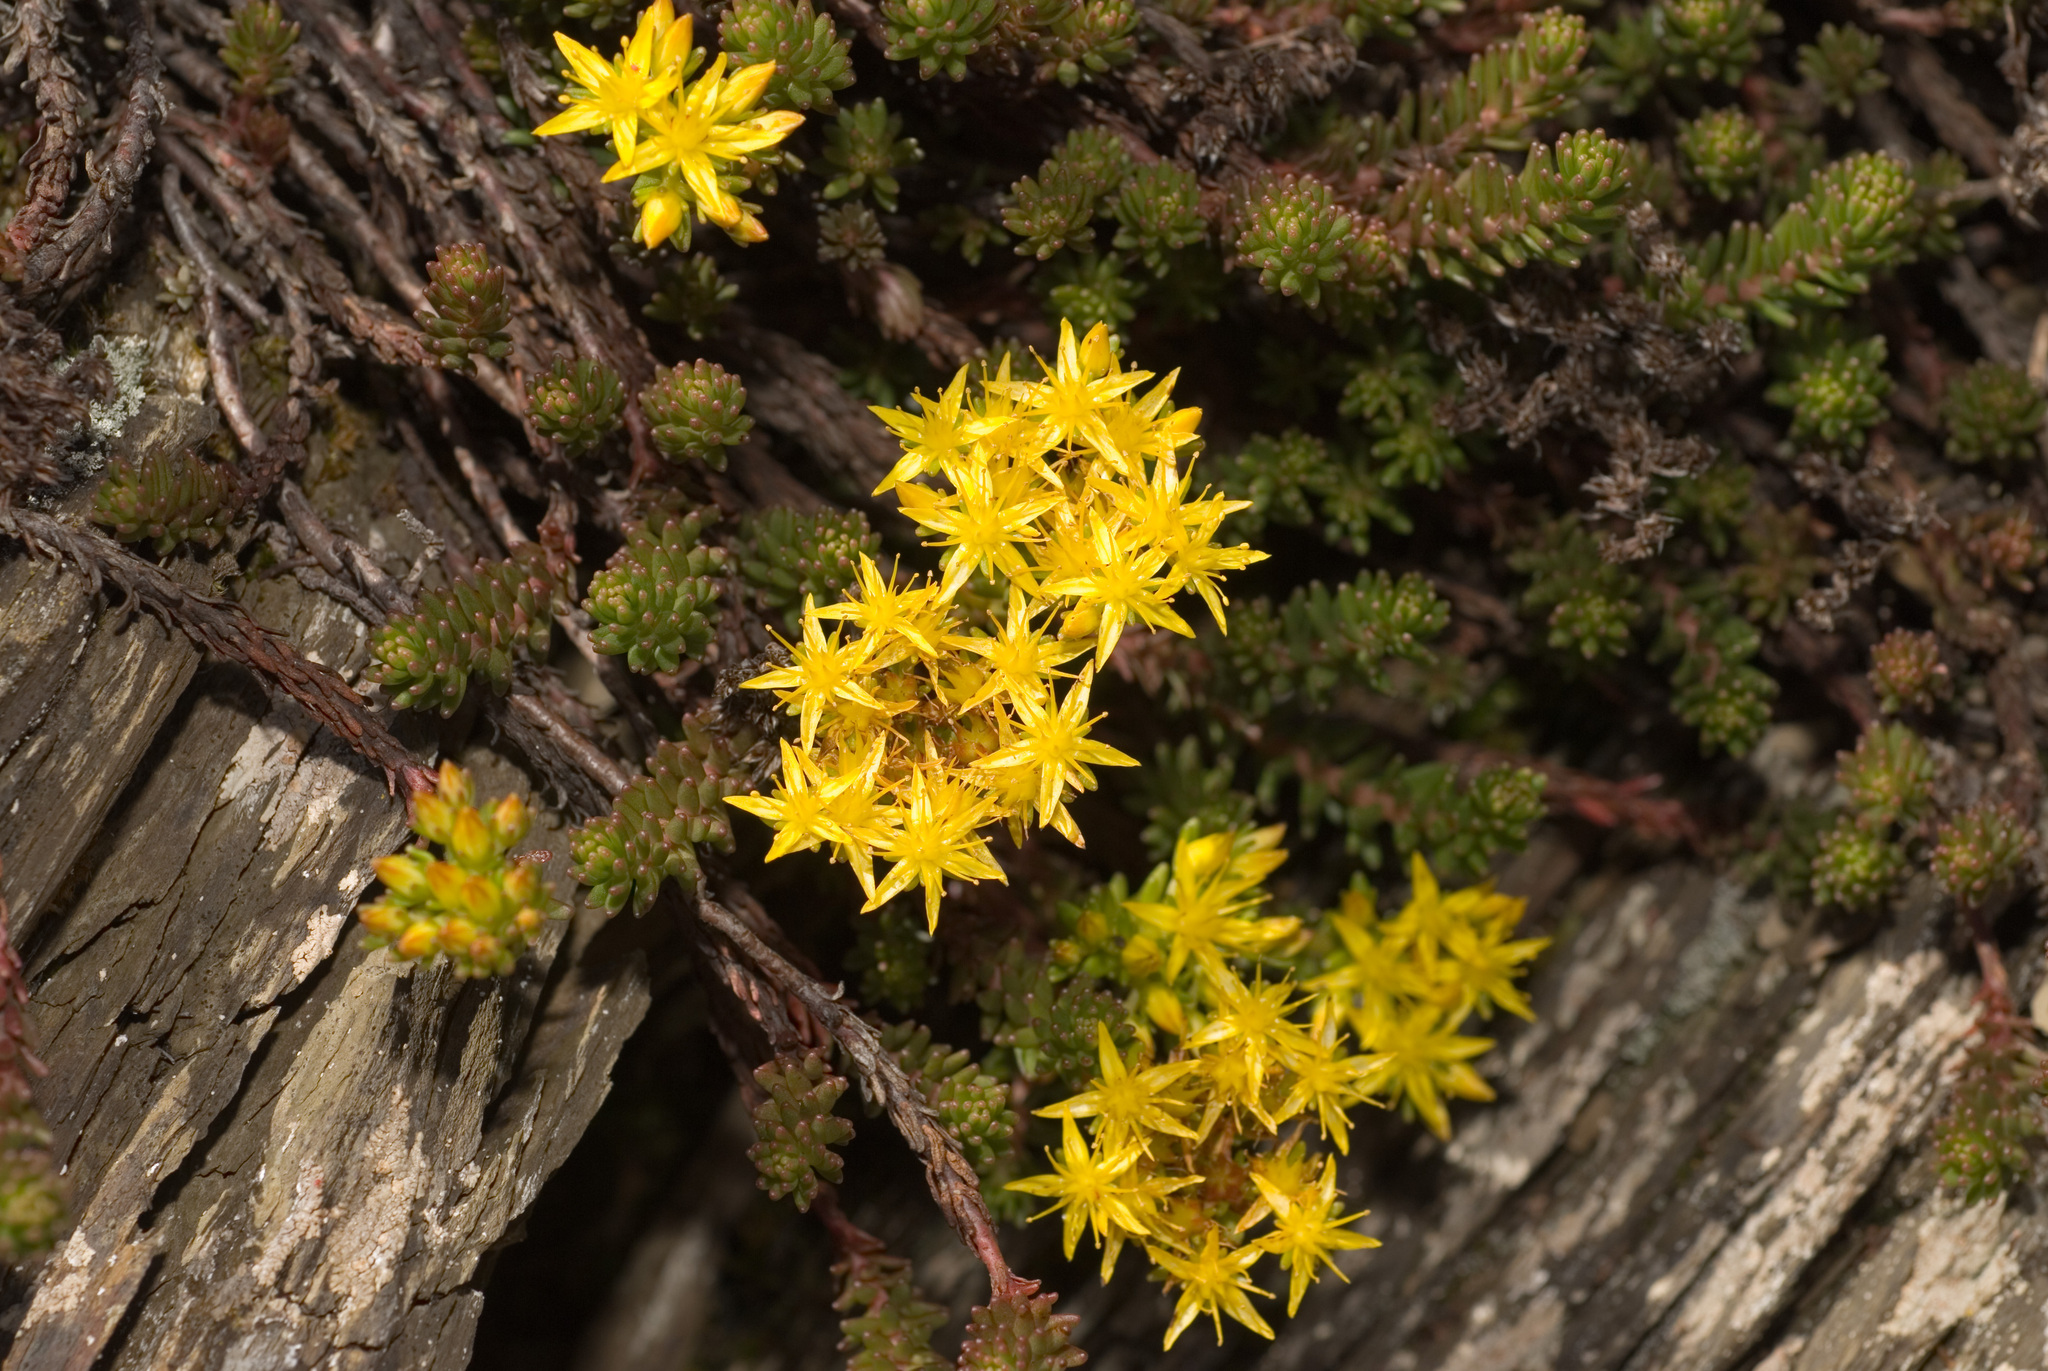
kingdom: Plantae
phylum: Tracheophyta
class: Magnoliopsida
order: Saxifragales
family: Crassulaceae
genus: Sedum
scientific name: Sedum morrisonense
